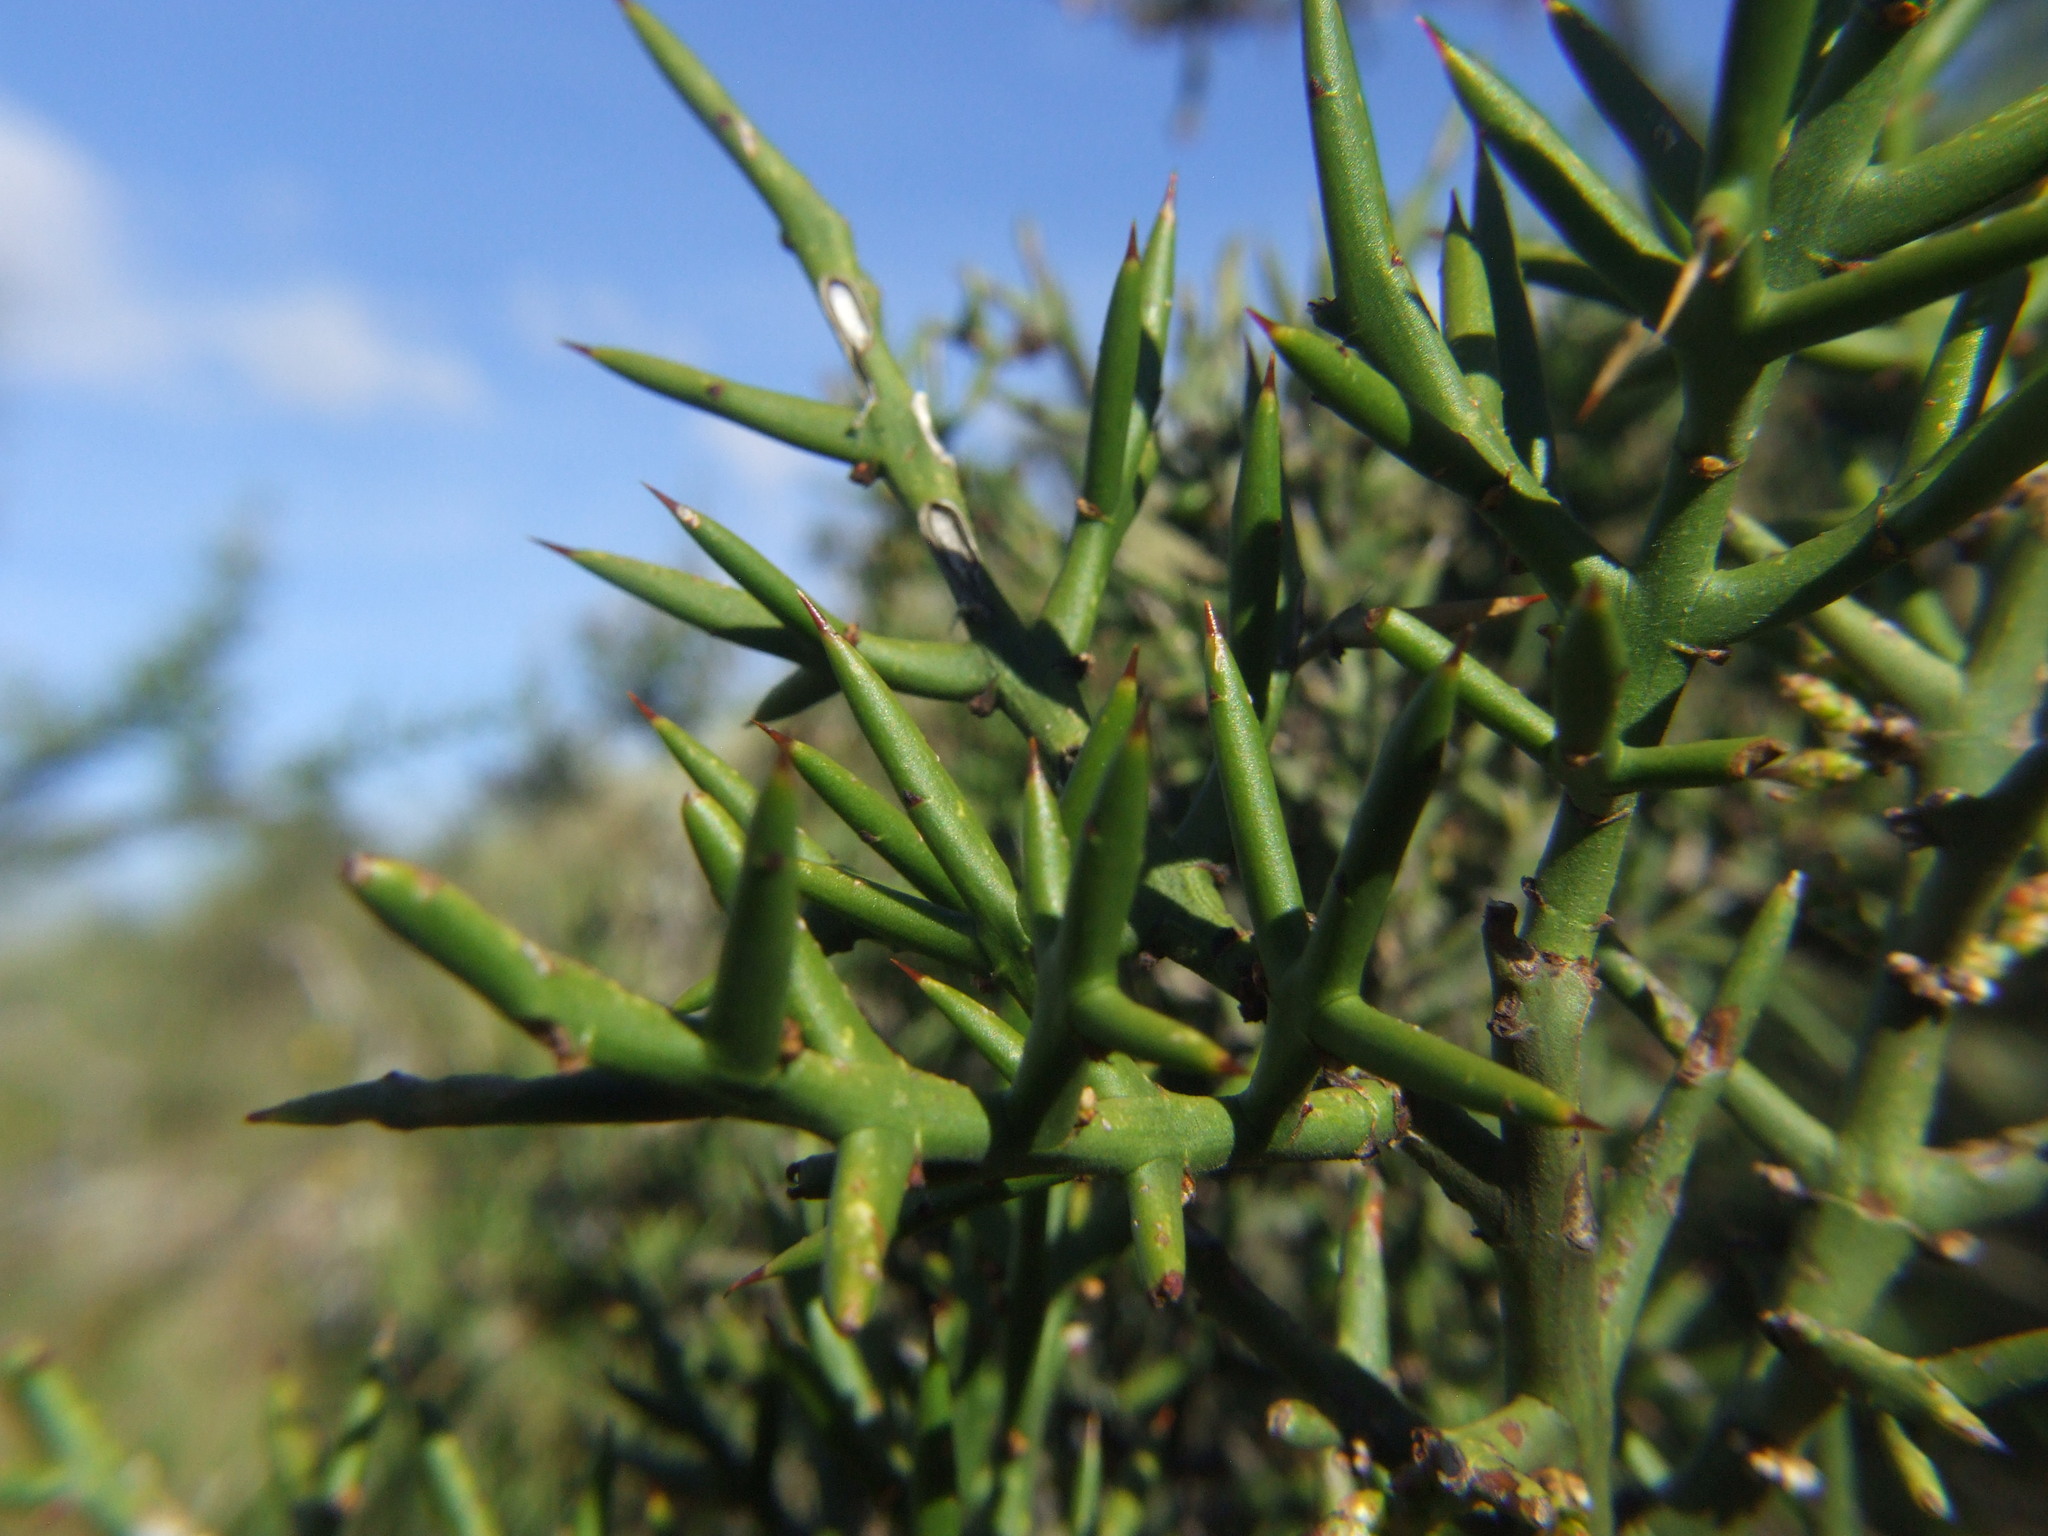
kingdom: Plantae
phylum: Tracheophyta
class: Magnoliopsida
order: Rosales
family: Rhamnaceae
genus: Colletia
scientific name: Colletia spinosissima
